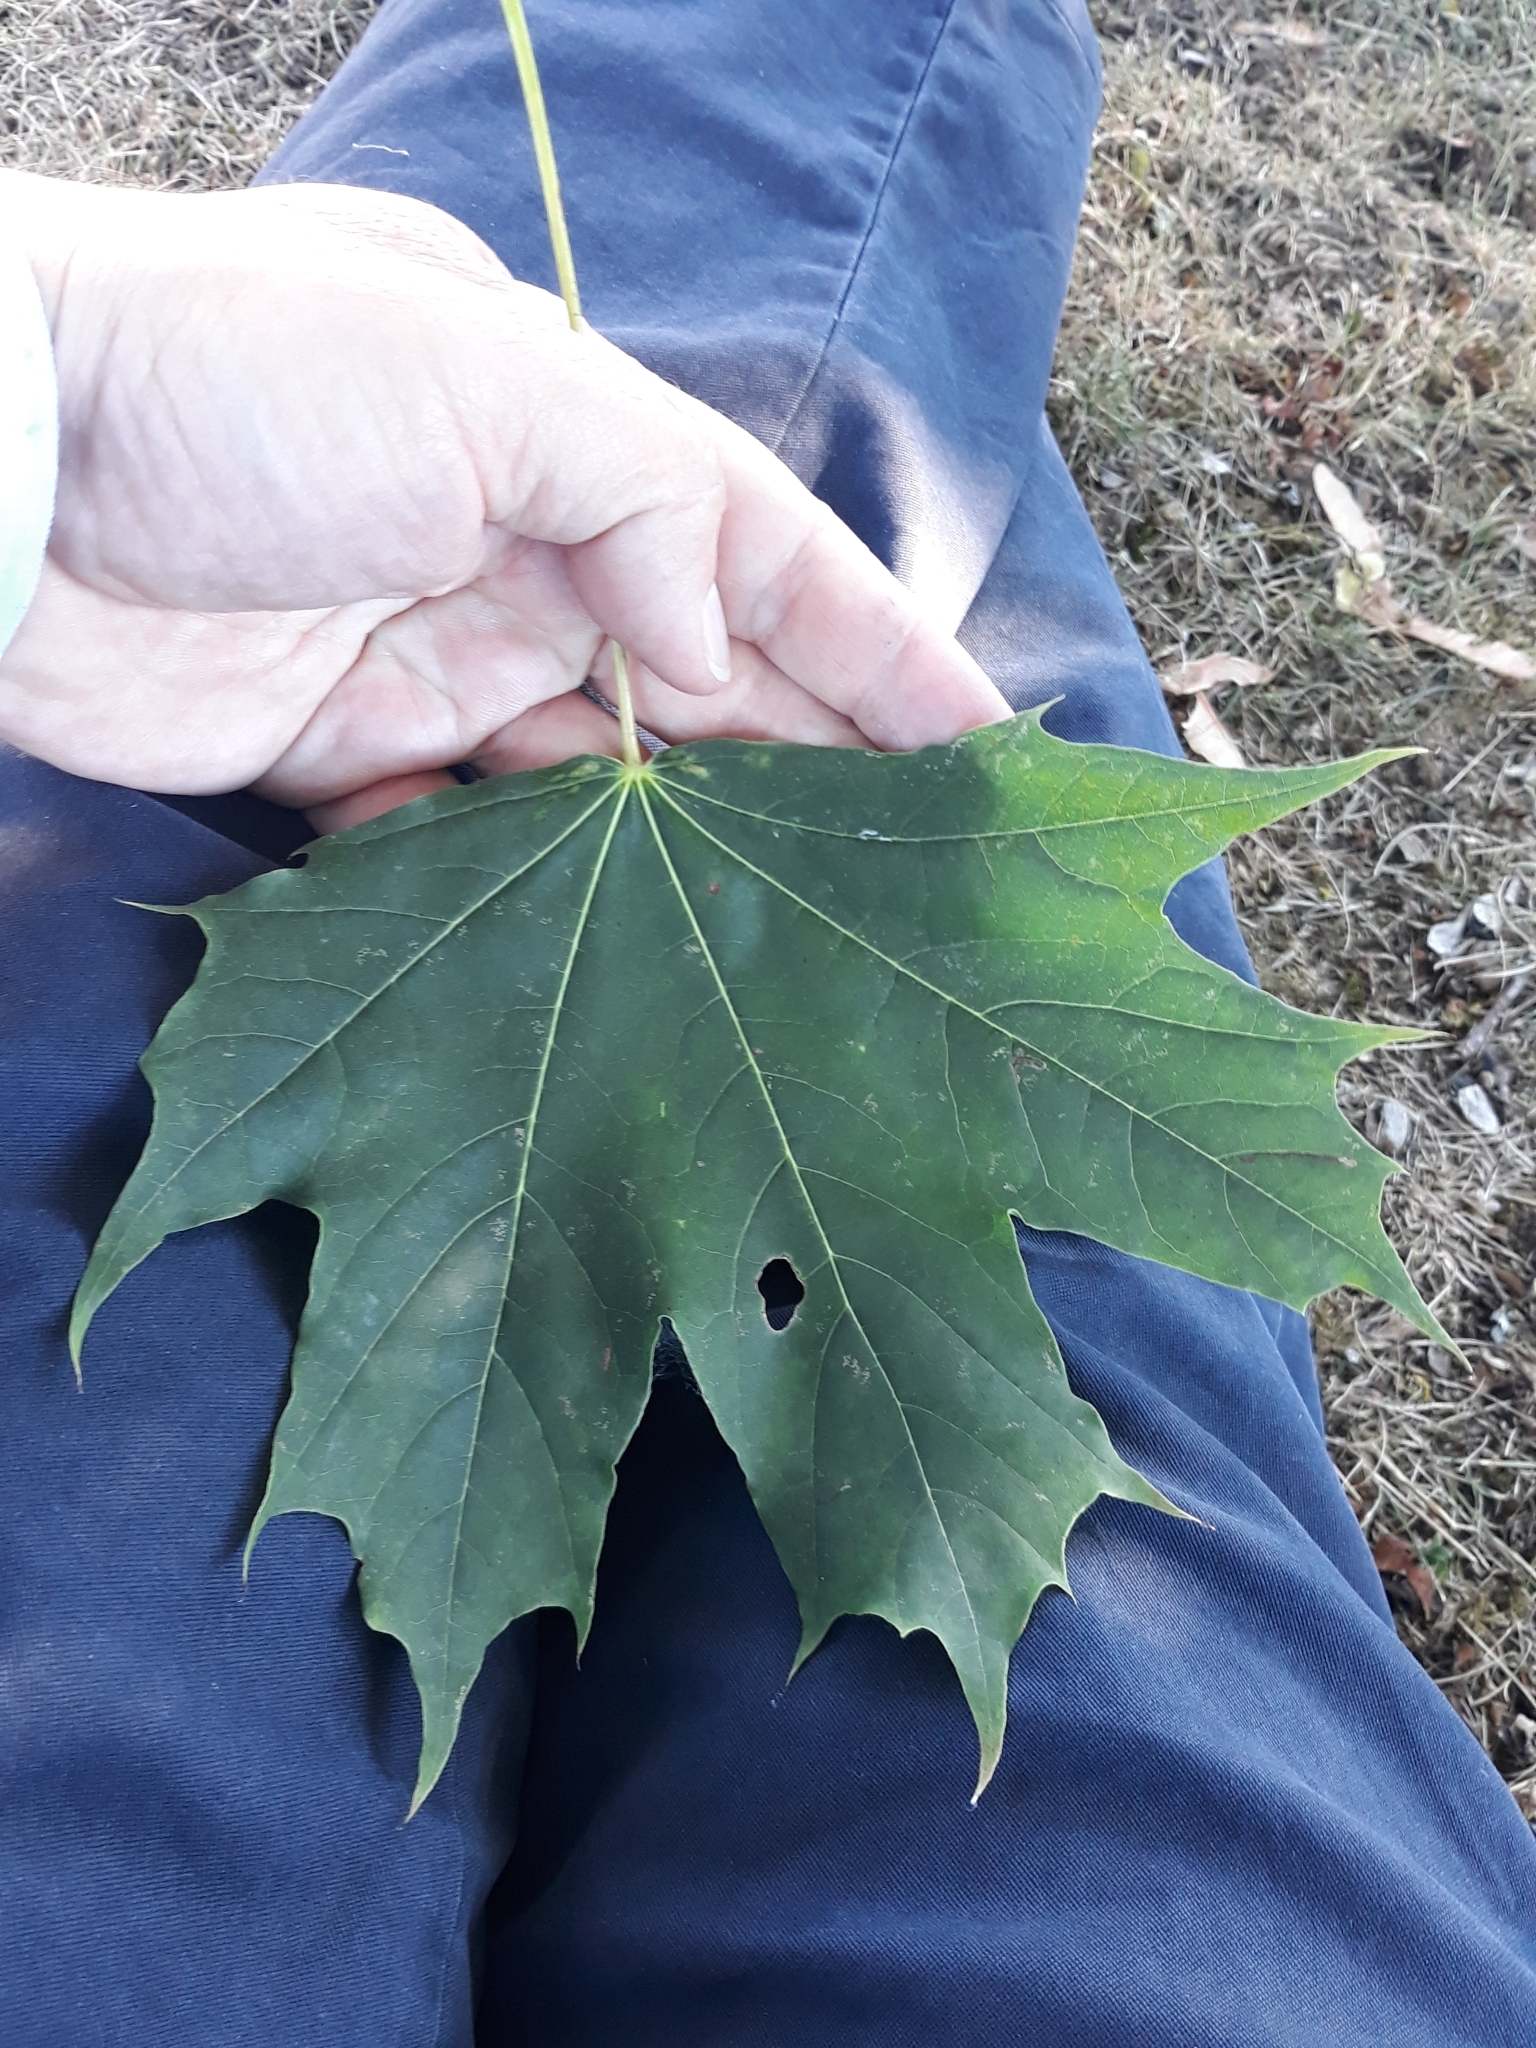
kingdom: Plantae
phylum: Tracheophyta
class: Magnoliopsida
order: Sapindales
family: Sapindaceae
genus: Acer
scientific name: Acer platanoides
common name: Norway maple
